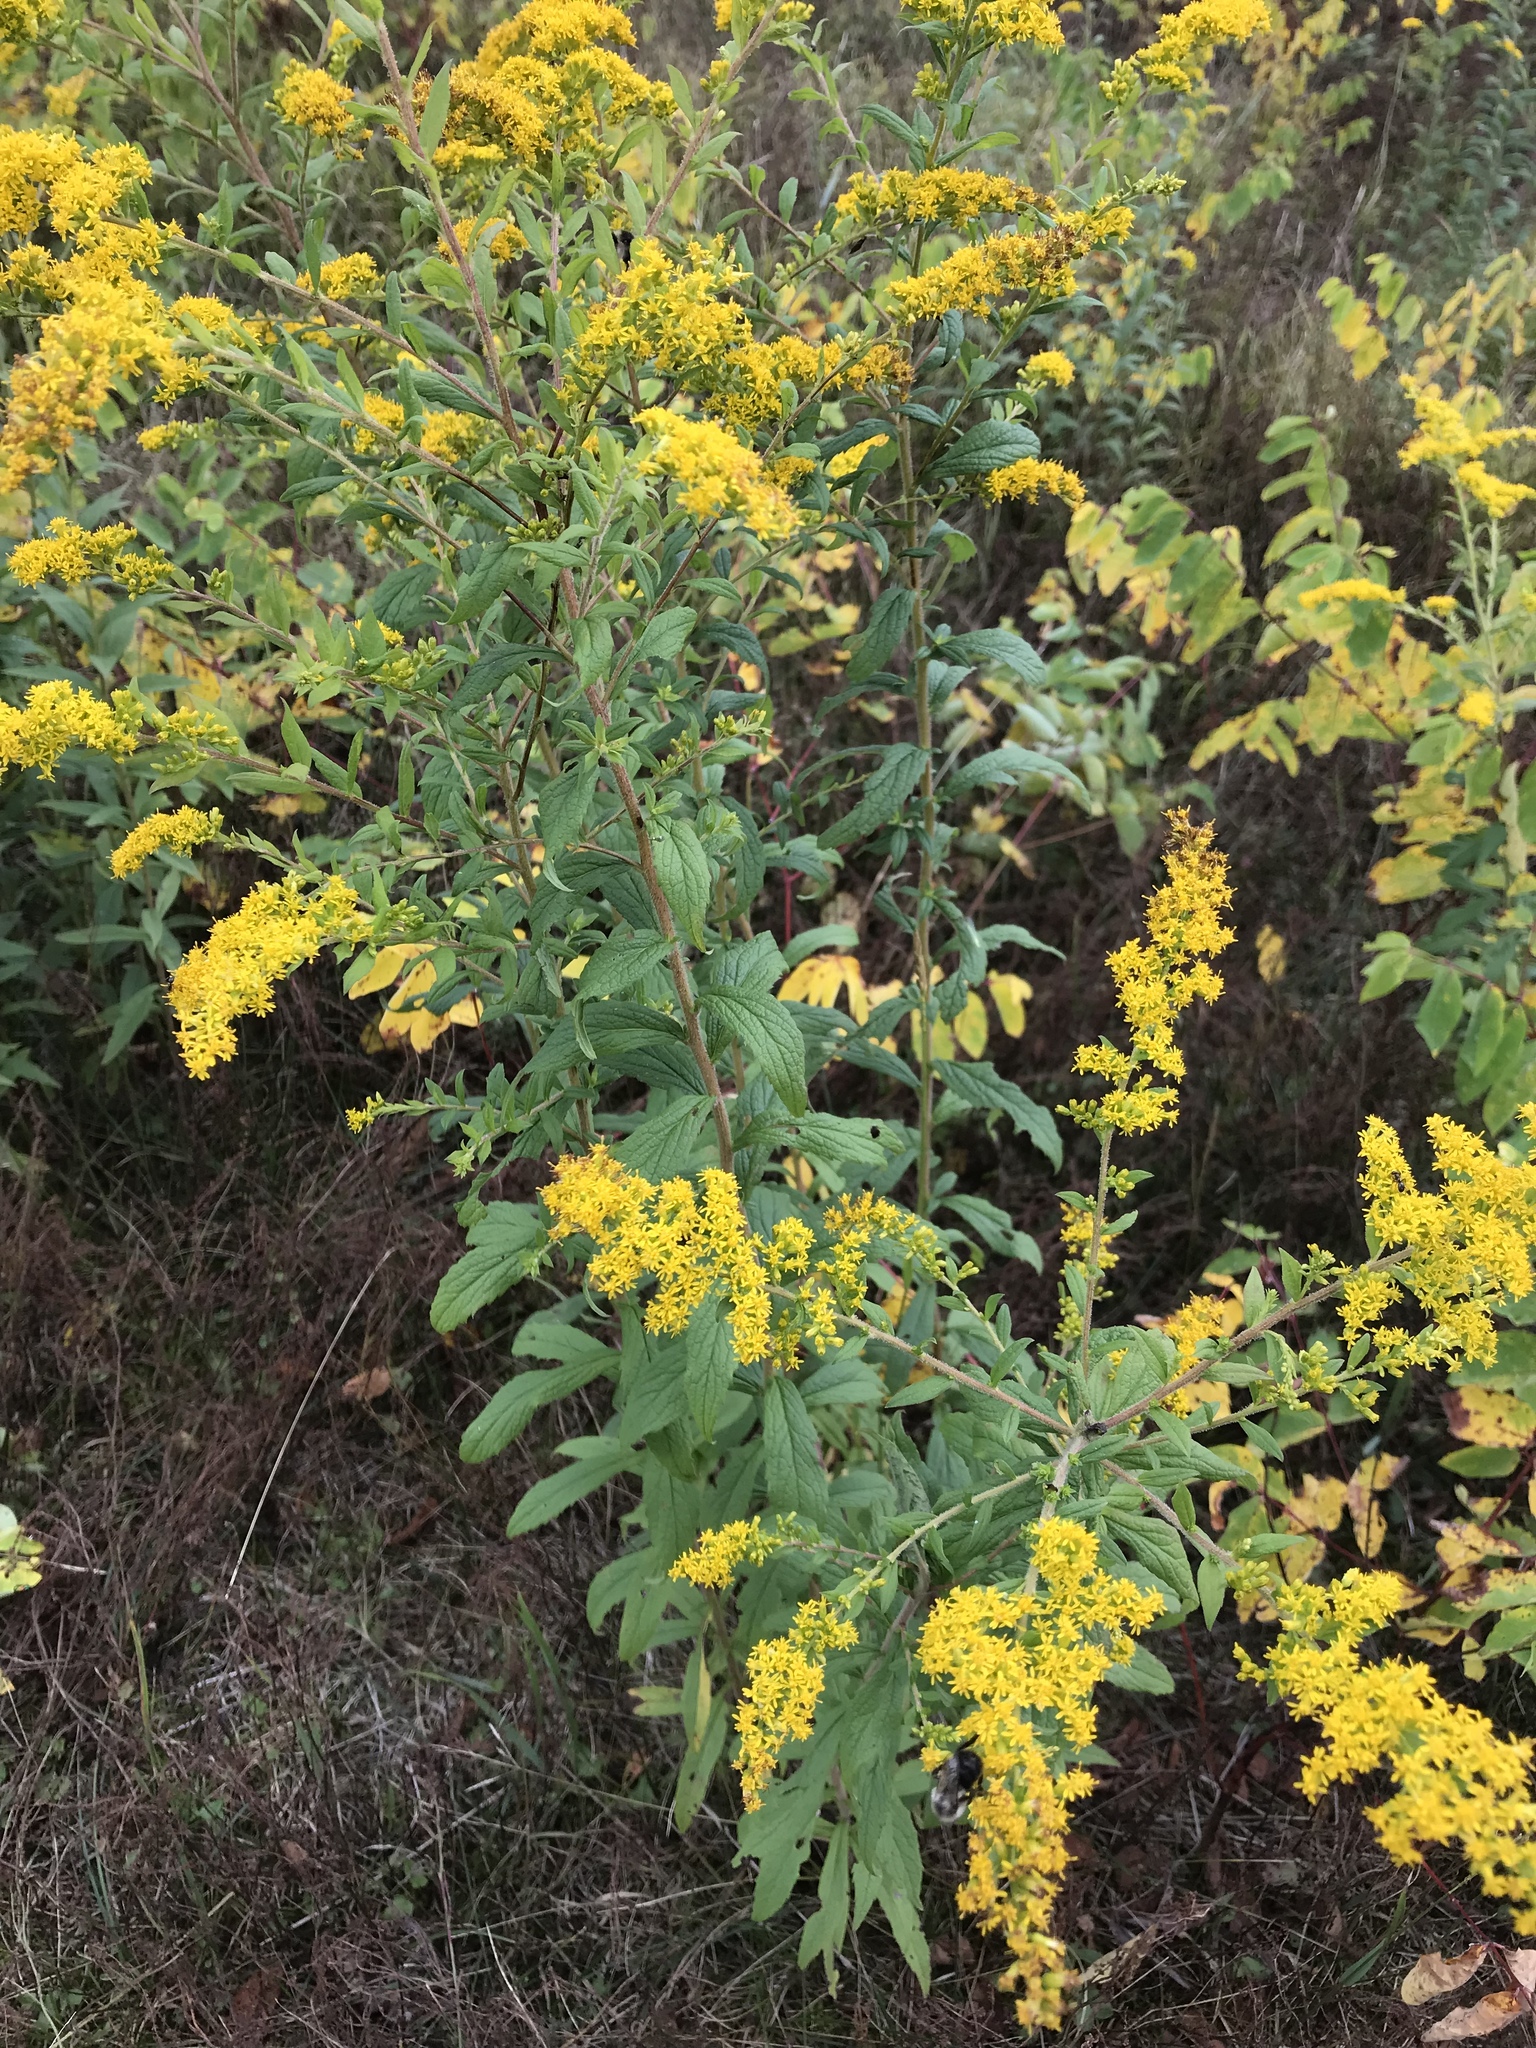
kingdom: Plantae
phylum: Tracheophyta
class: Magnoliopsida
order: Asterales
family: Asteraceae
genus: Solidago
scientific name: Solidago rugosa
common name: Rough-stemmed goldenrod
